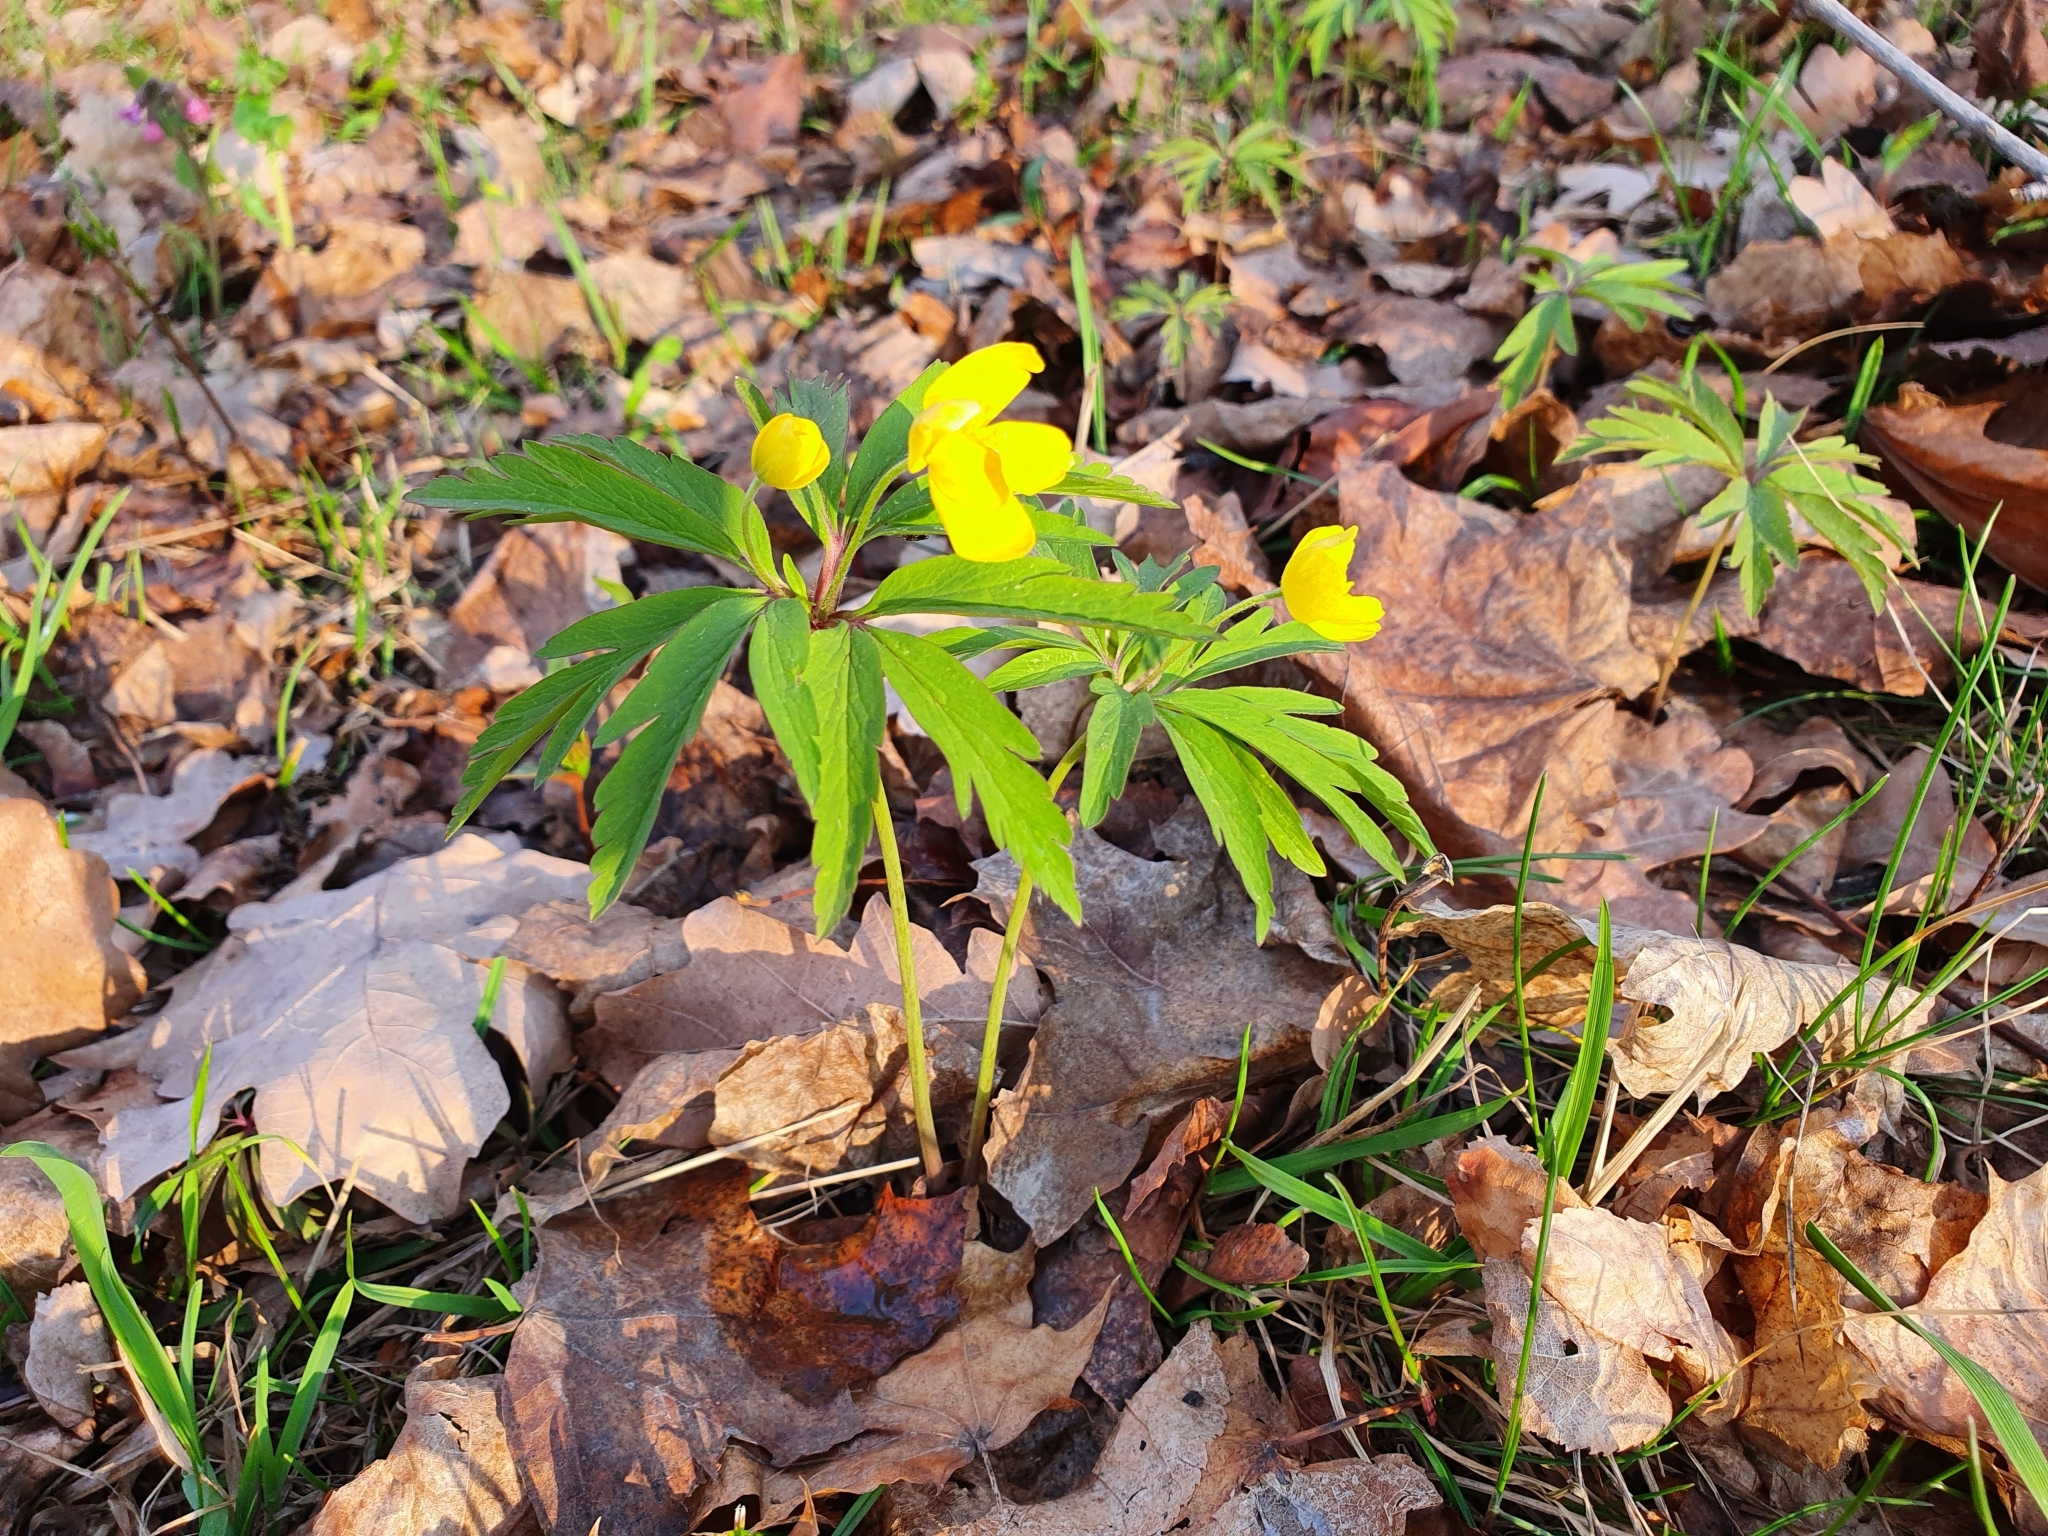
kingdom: Plantae
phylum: Tracheophyta
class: Magnoliopsida
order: Ranunculales
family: Ranunculaceae
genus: Anemone
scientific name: Anemone ranunculoides
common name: Yellow anemone
